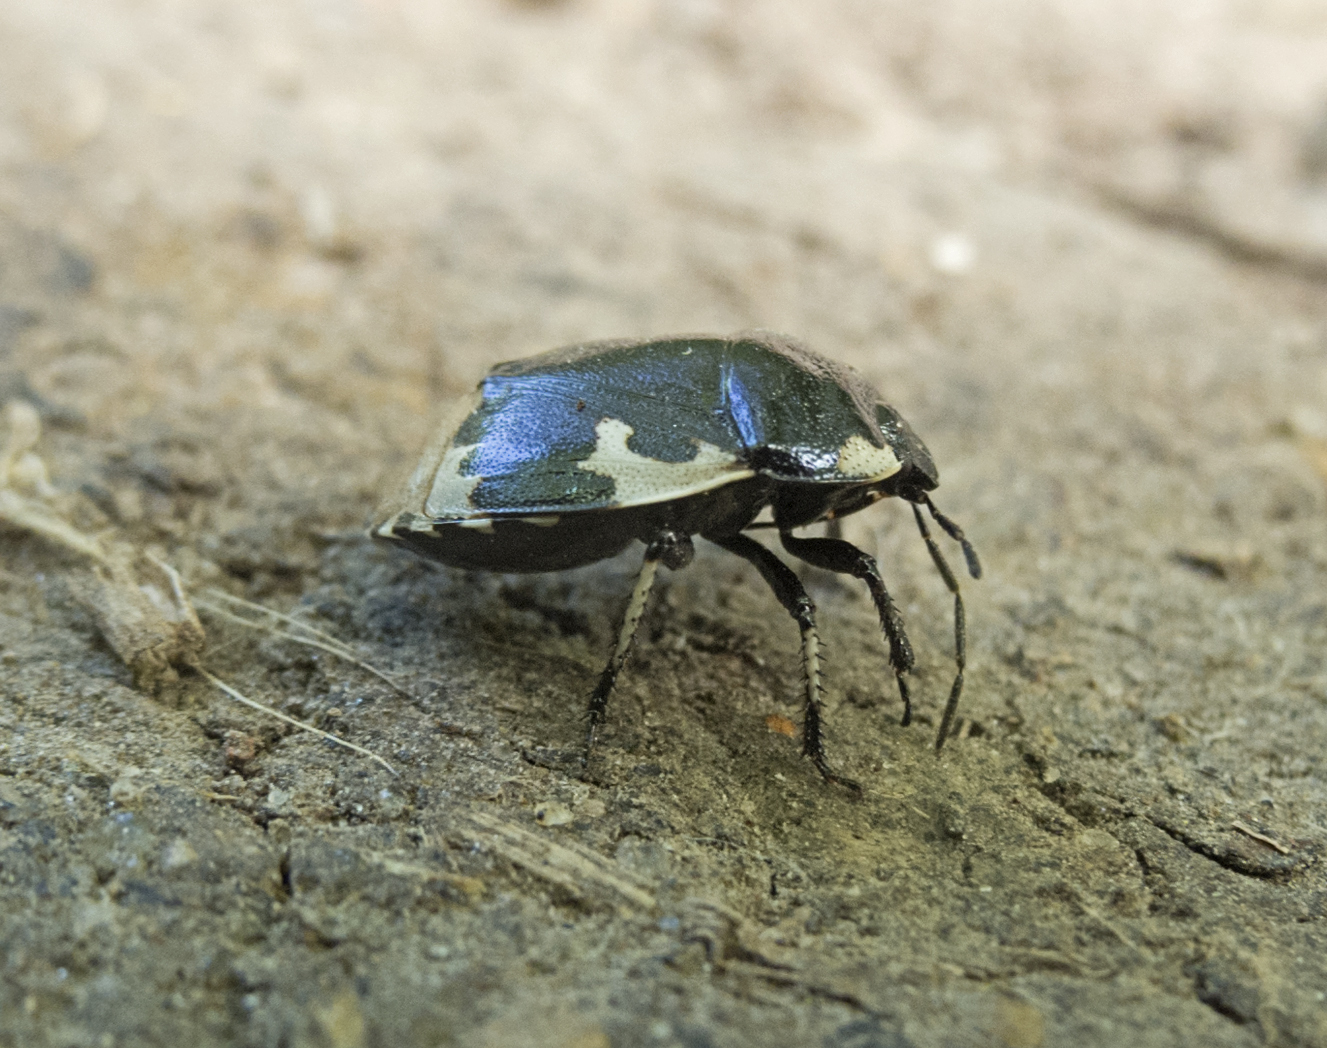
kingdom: Animalia
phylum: Arthropoda
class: Insecta
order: Hemiptera
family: Cydnidae
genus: Tritomegas
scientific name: Tritomegas bicolor
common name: Pied shieldbug
